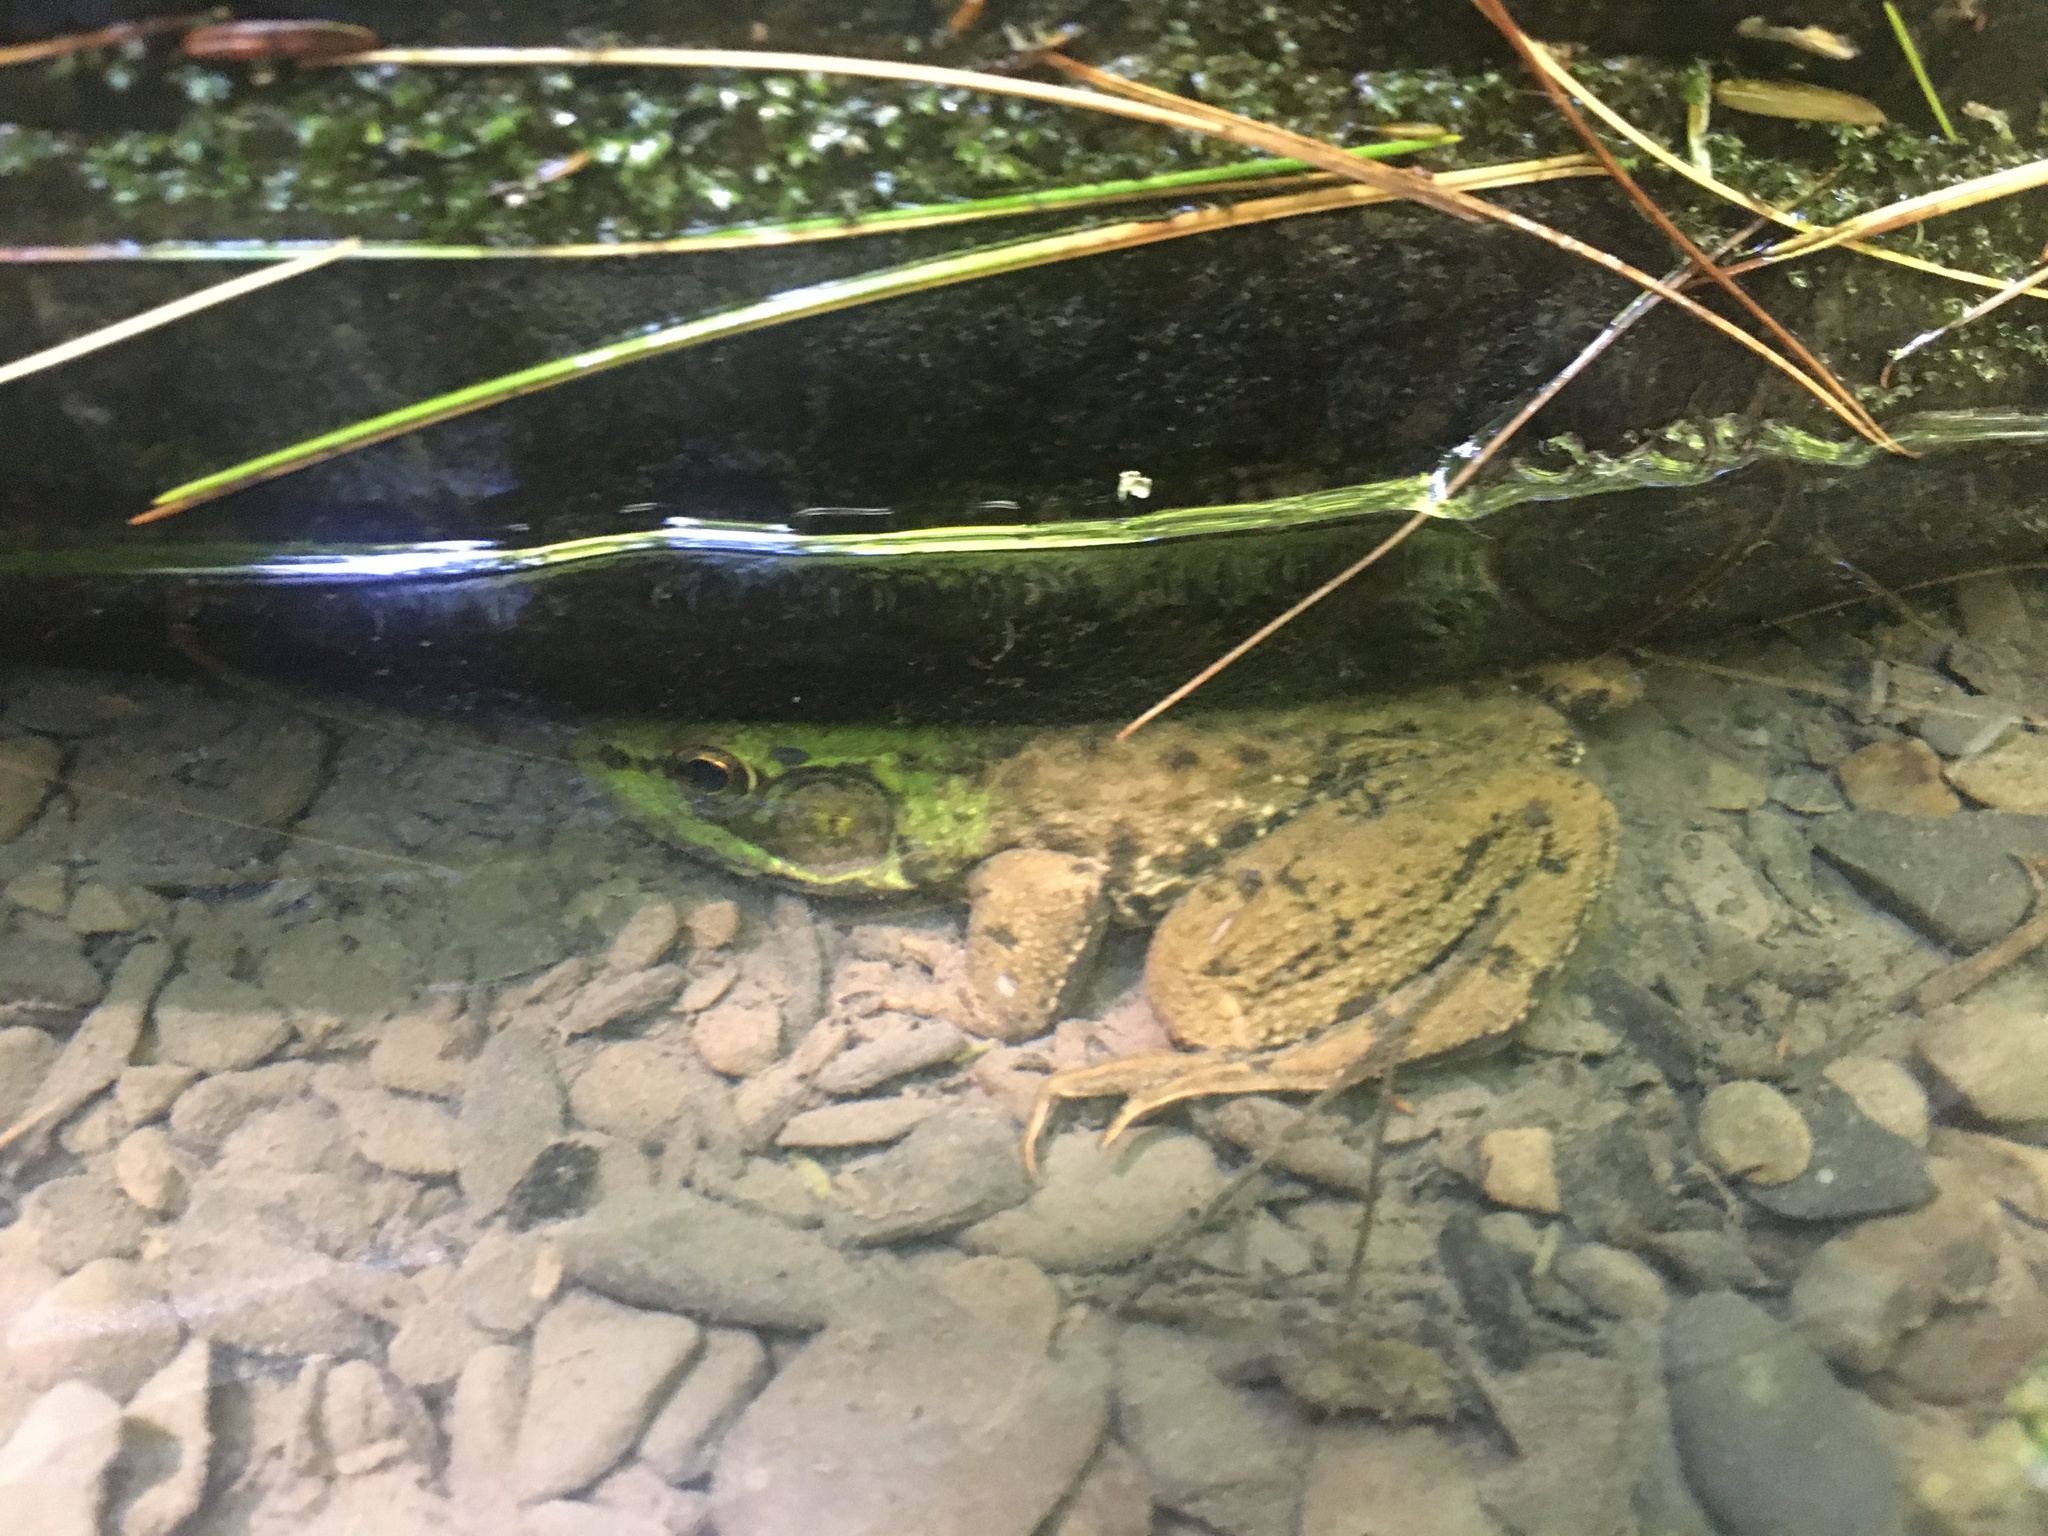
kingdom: Animalia
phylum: Chordata
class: Amphibia
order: Anura
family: Ranidae
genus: Lithobates
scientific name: Lithobates clamitans
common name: Green frog
